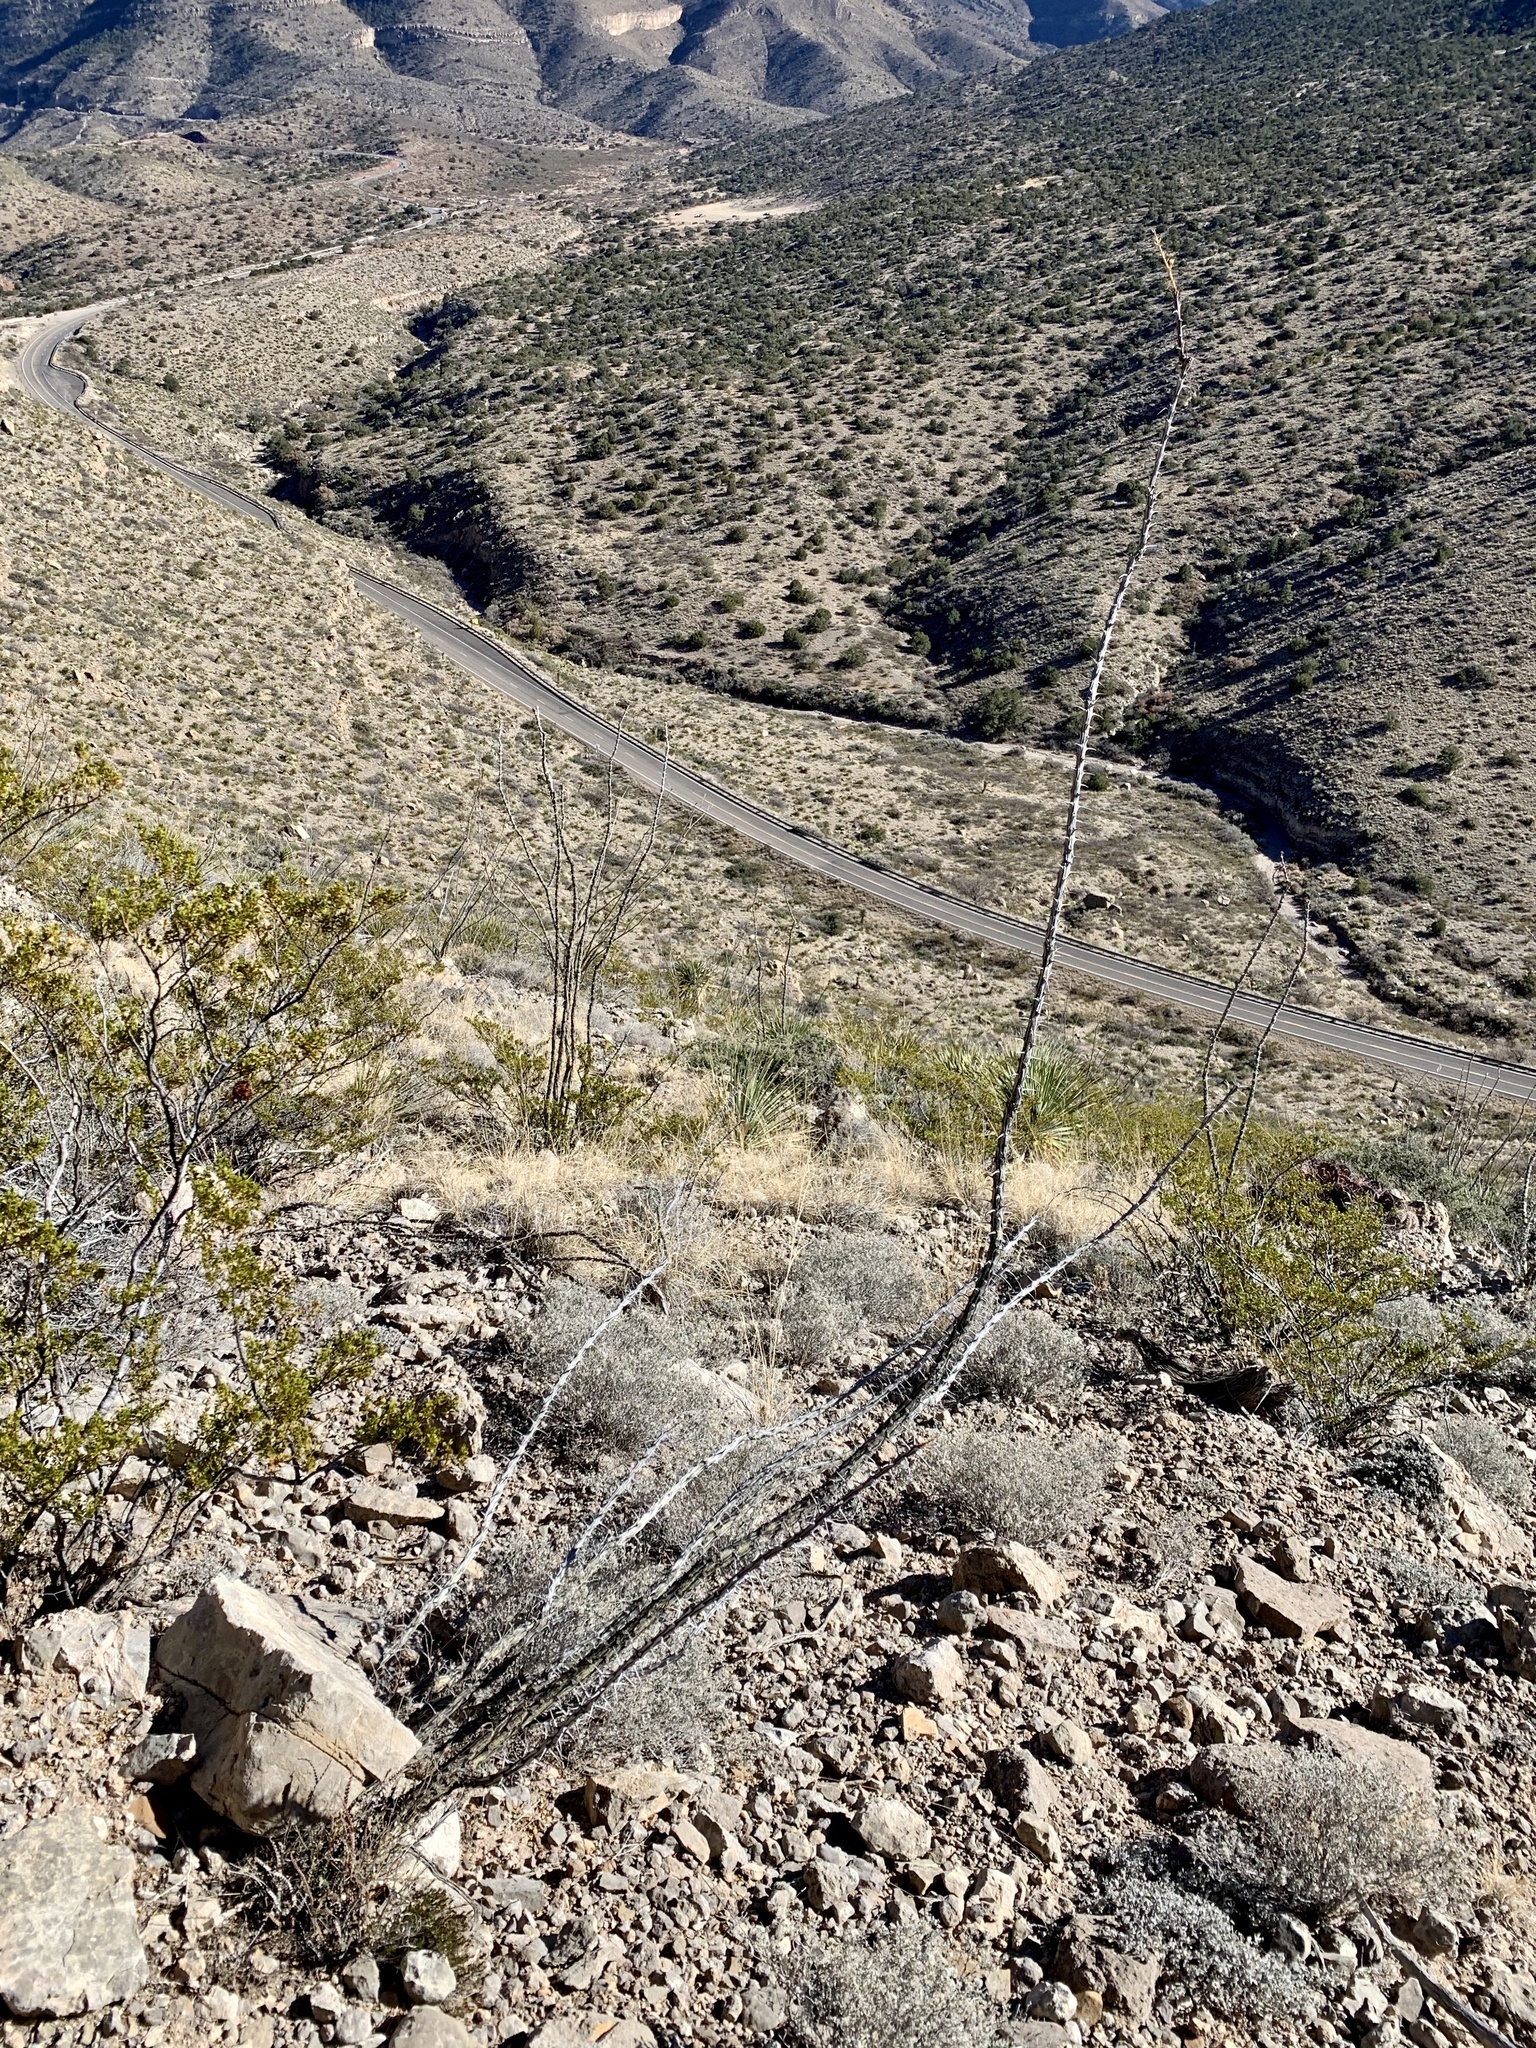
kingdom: Plantae
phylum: Tracheophyta
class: Magnoliopsida
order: Ericales
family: Fouquieriaceae
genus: Fouquieria
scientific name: Fouquieria splendens
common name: Vine-cactus
